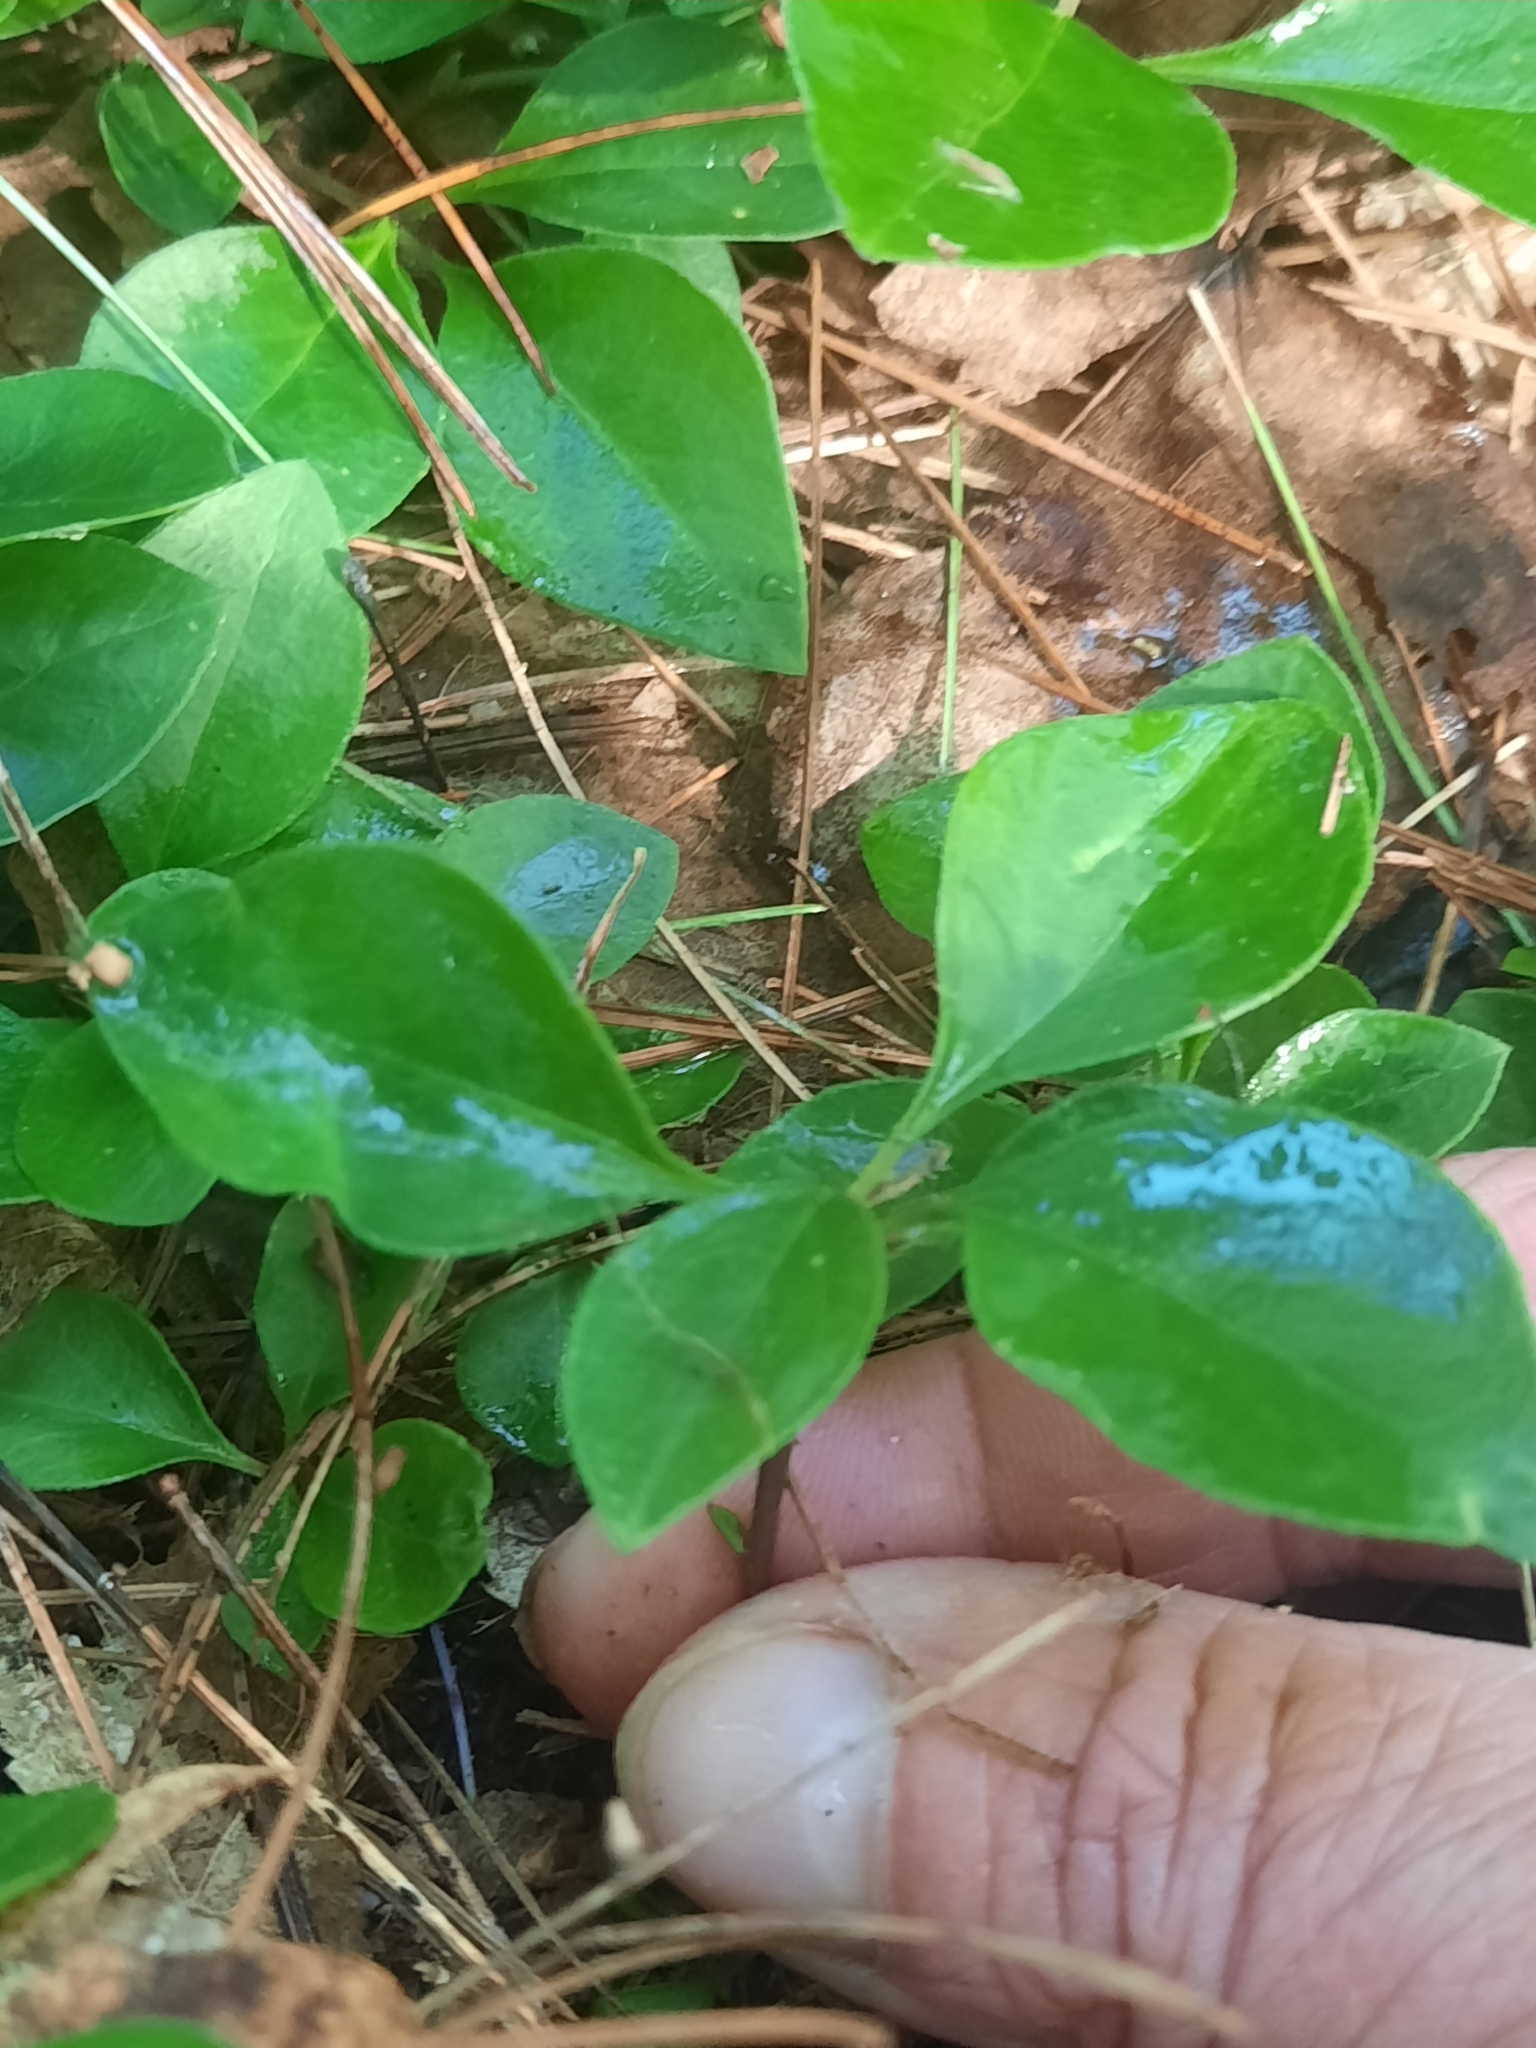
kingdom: Plantae
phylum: Tracheophyta
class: Magnoliopsida
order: Fabales
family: Polygalaceae
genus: Polygaloides
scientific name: Polygaloides paucifolia
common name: Bird-on-the-wing
